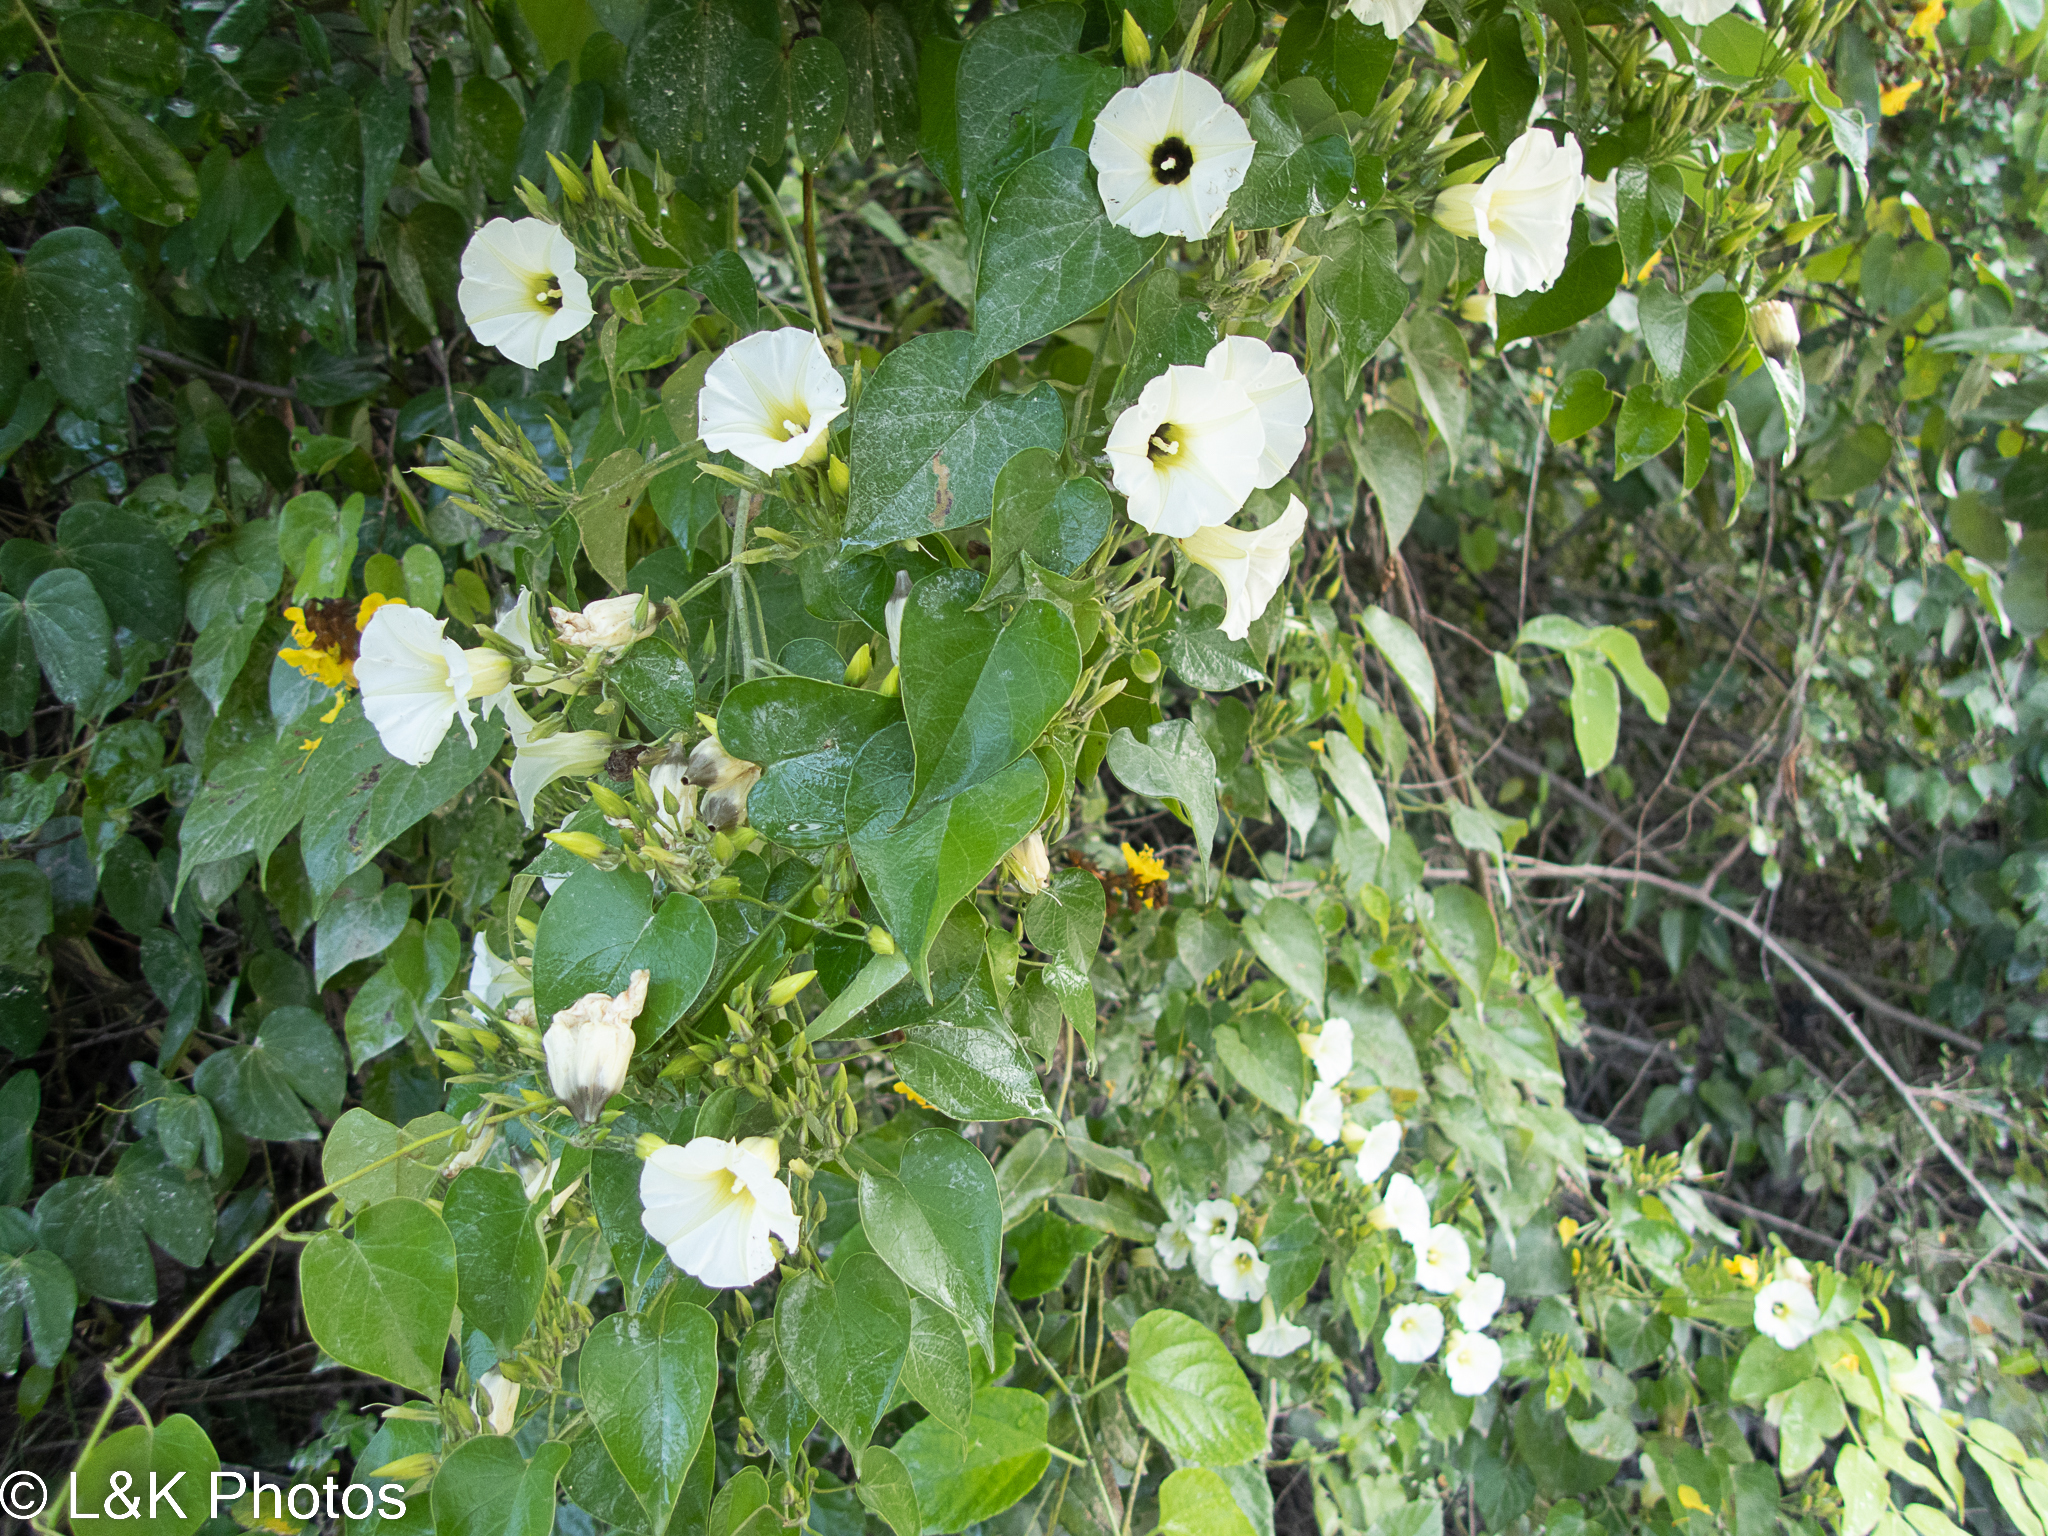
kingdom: Plantae
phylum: Tracheophyta
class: Magnoliopsida
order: Solanales
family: Convolvulaceae
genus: Ipomoea
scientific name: Ipomoea corymbosa
